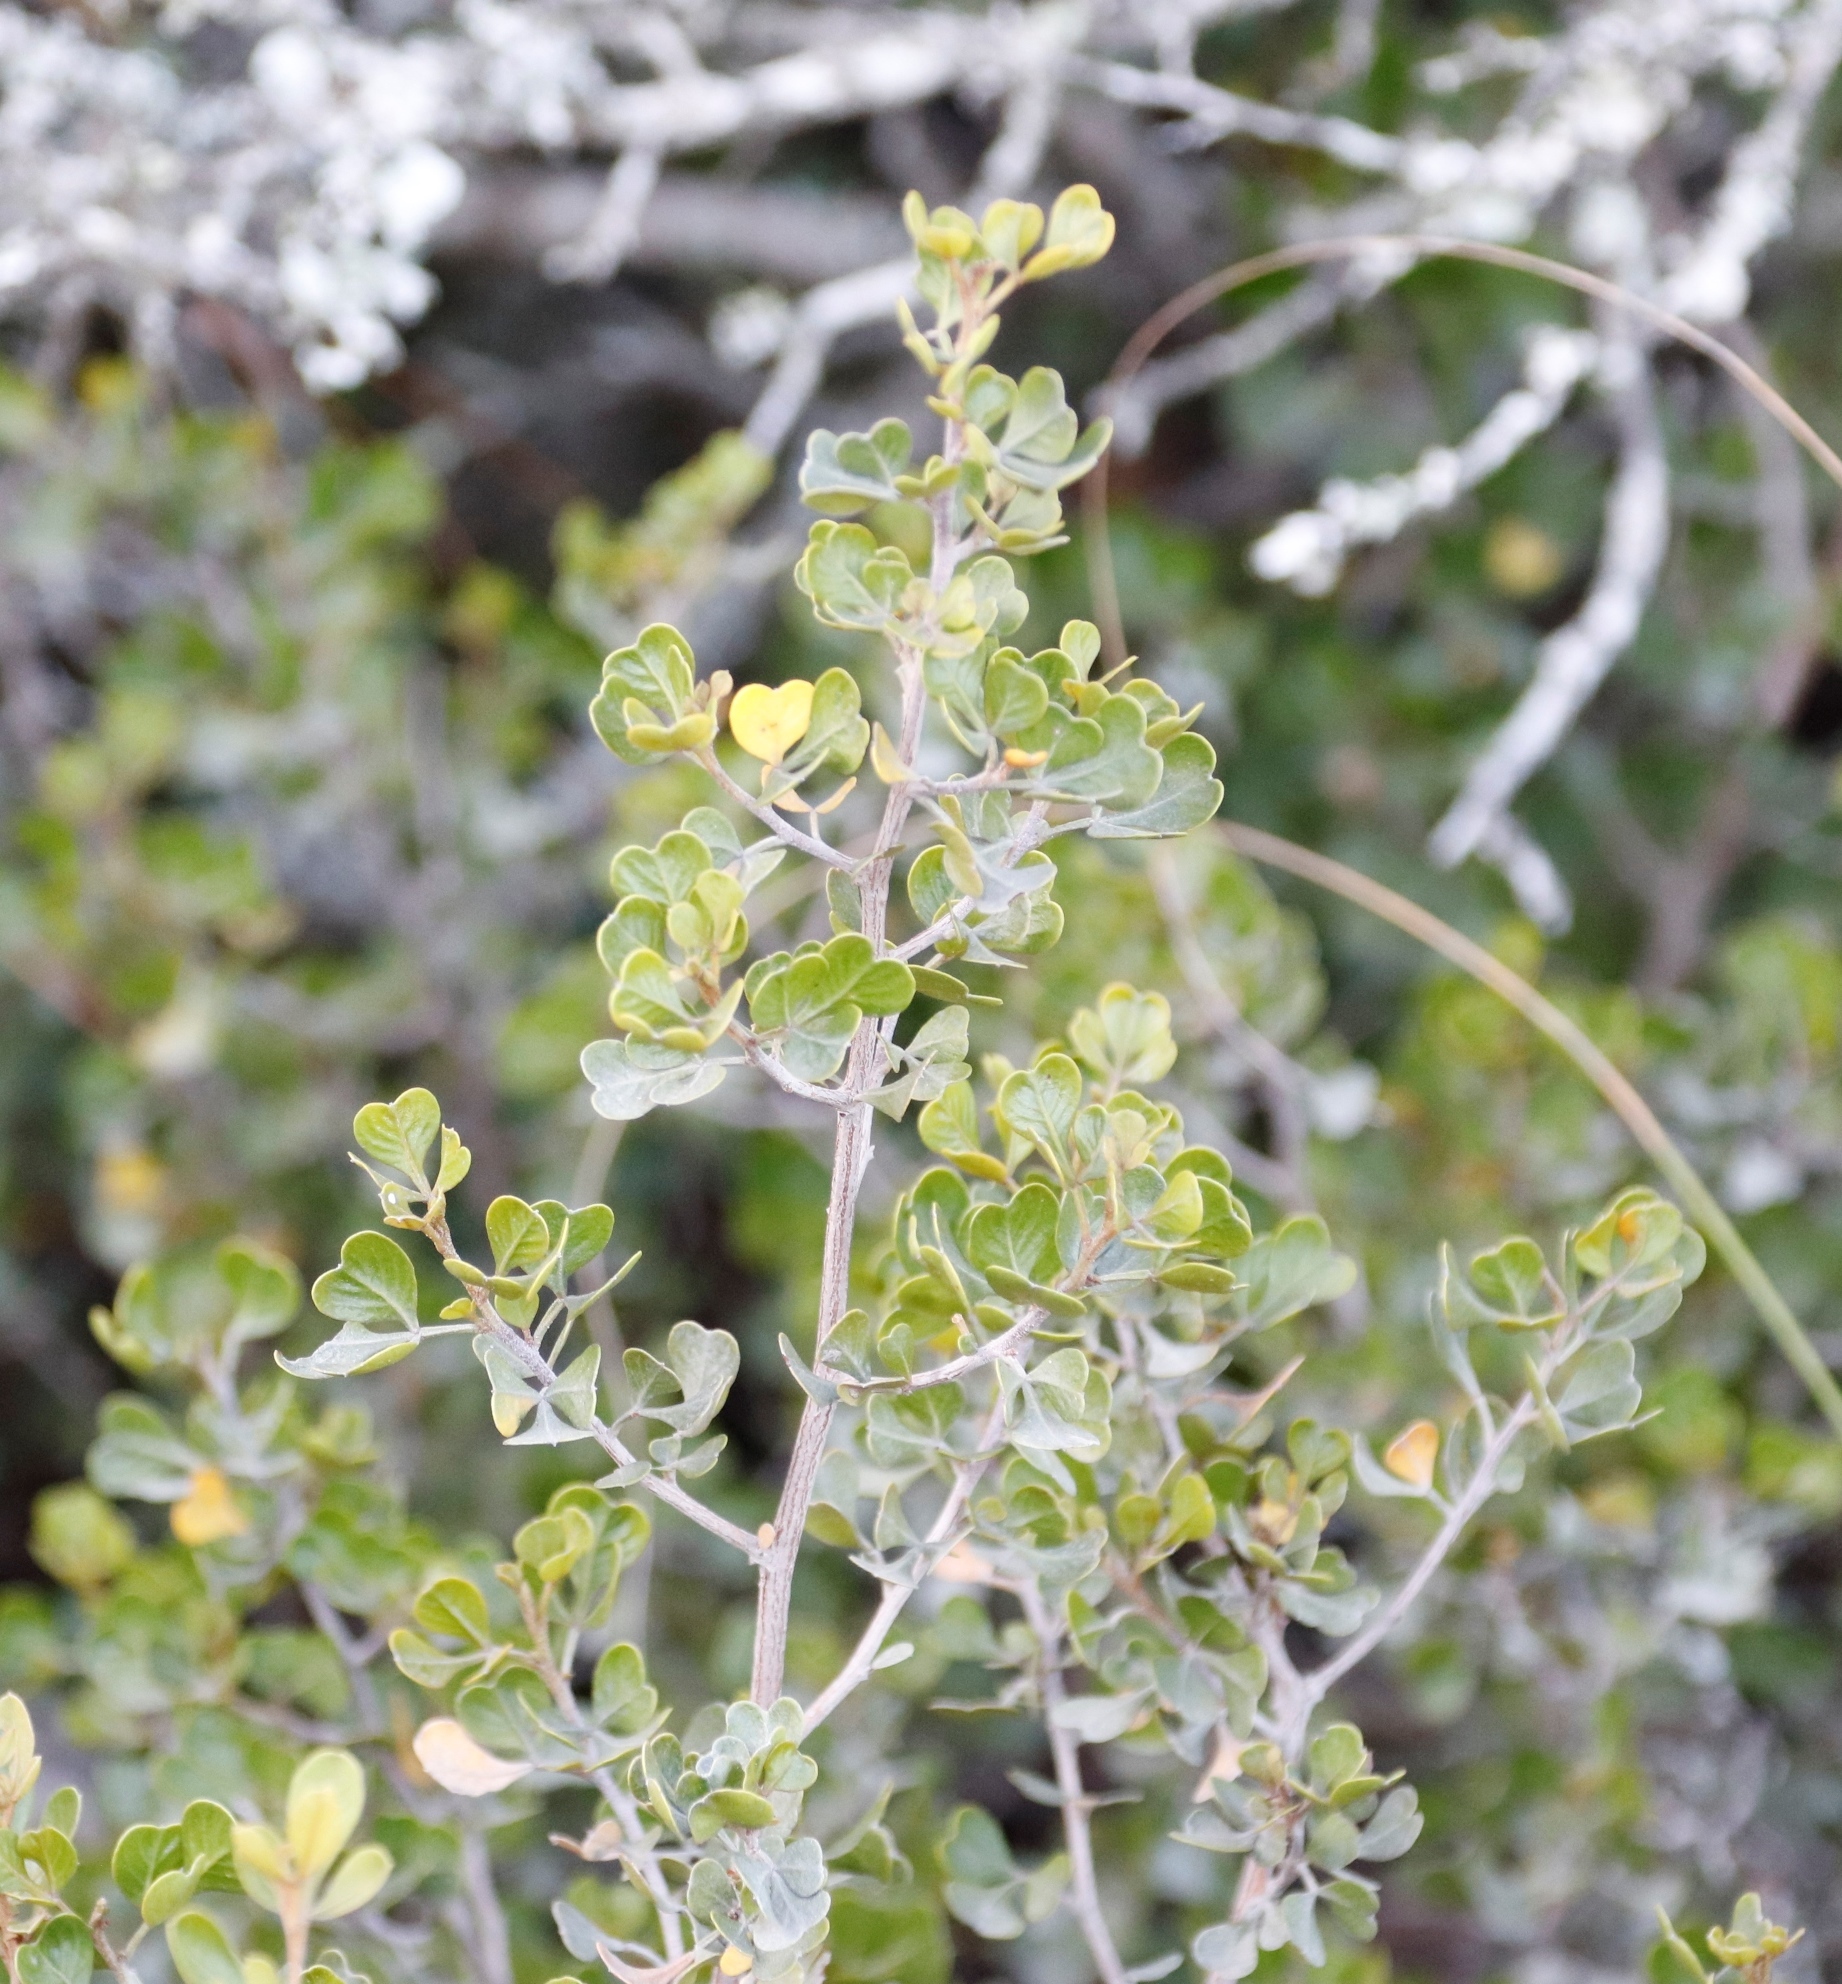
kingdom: Plantae
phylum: Tracheophyta
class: Magnoliopsida
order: Sapindales
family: Anacardiaceae
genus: Searsia
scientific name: Searsia glauca
